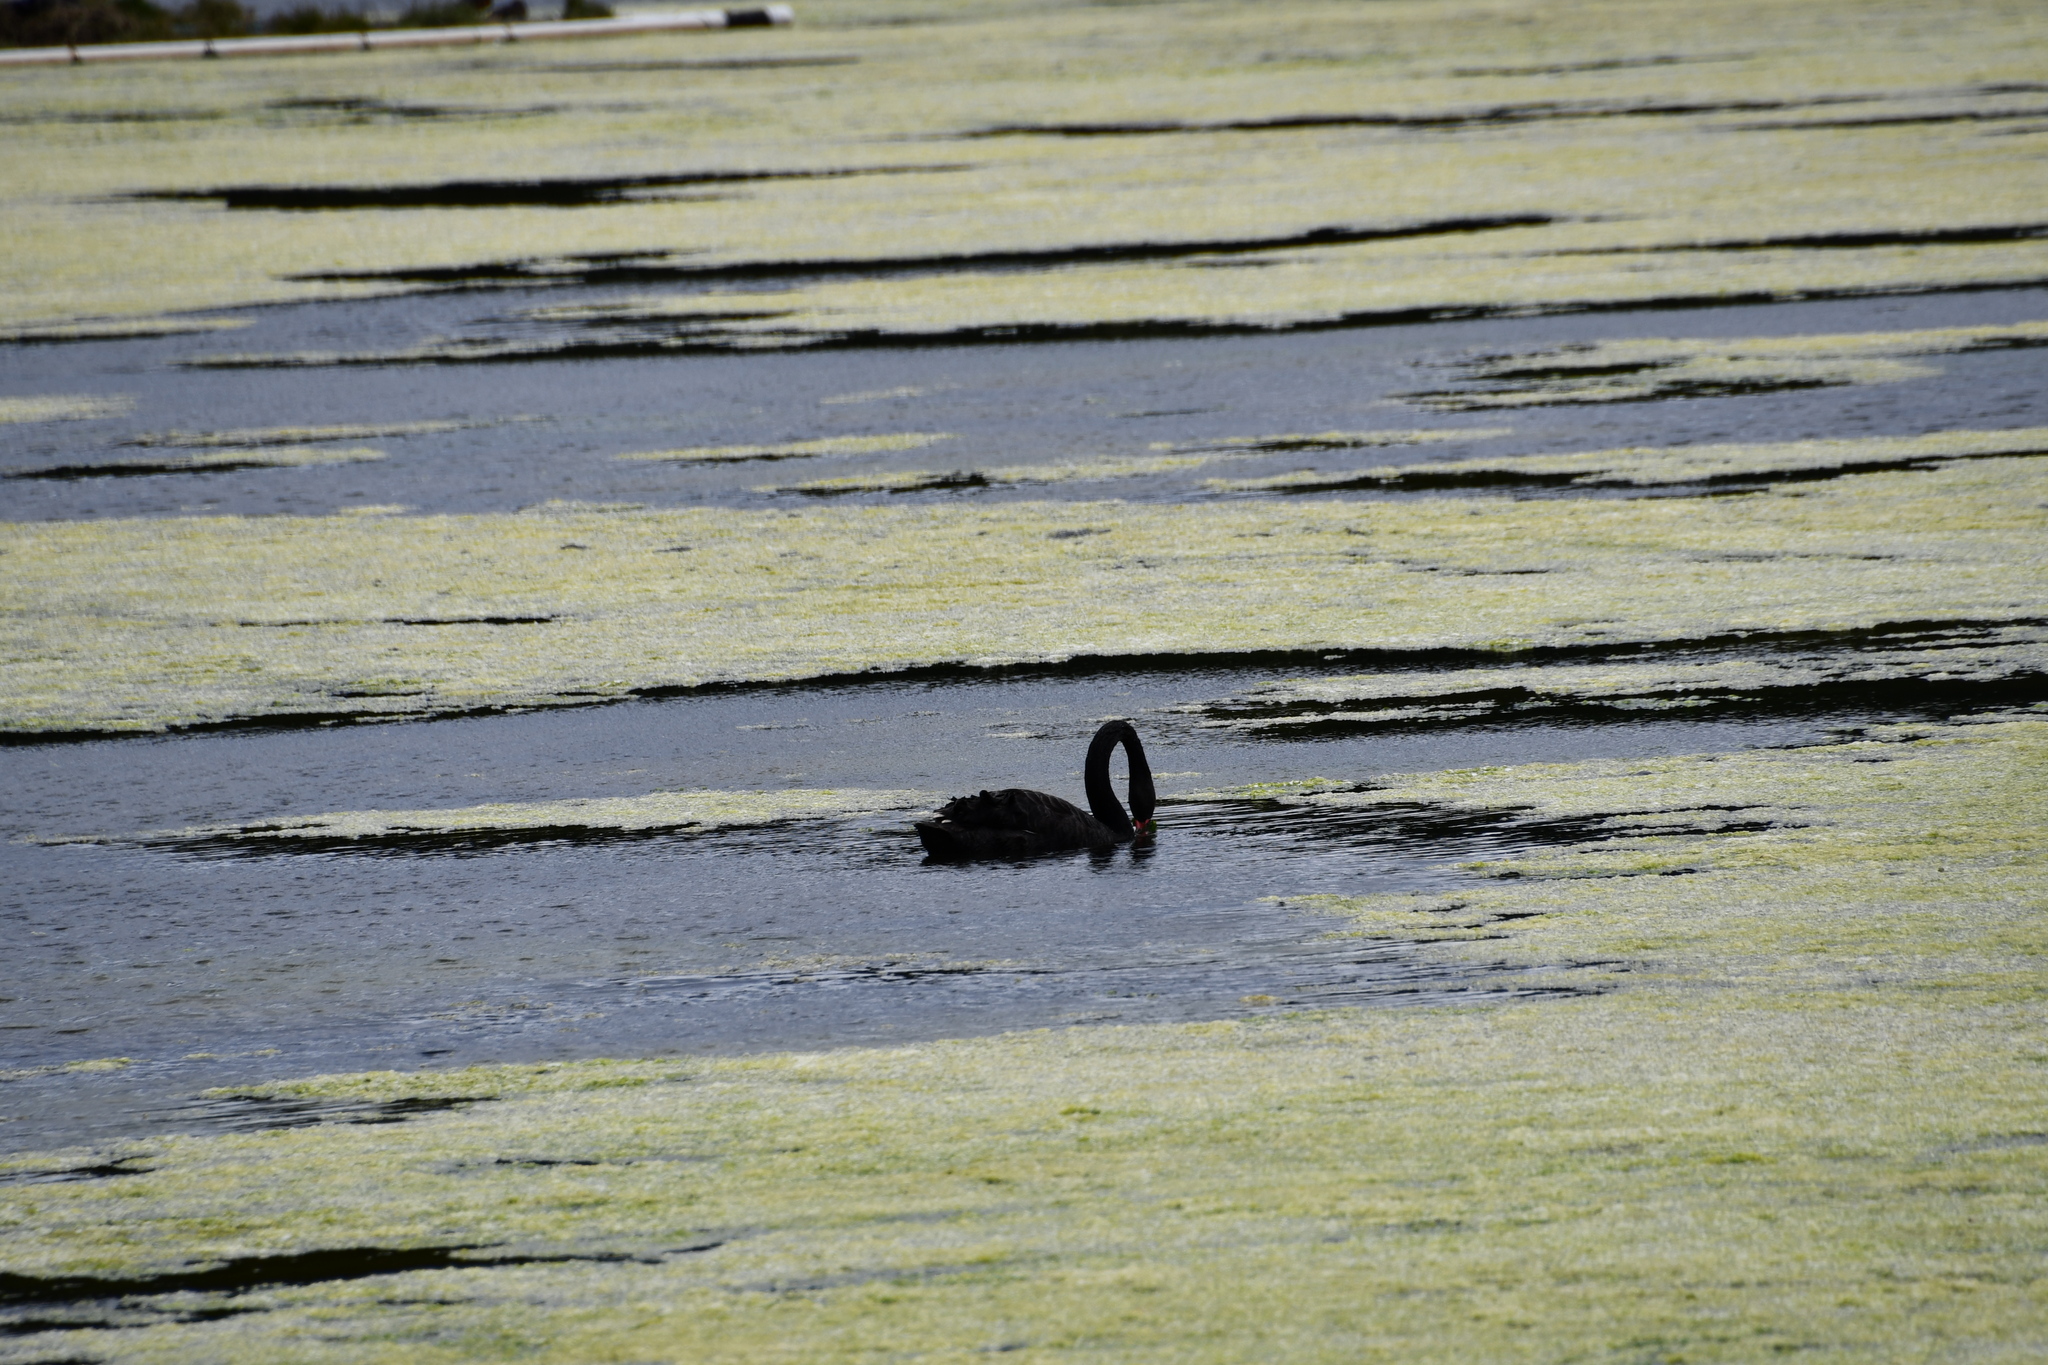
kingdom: Animalia
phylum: Chordata
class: Aves
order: Anseriformes
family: Anatidae
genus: Cygnus
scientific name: Cygnus atratus
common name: Black swan
